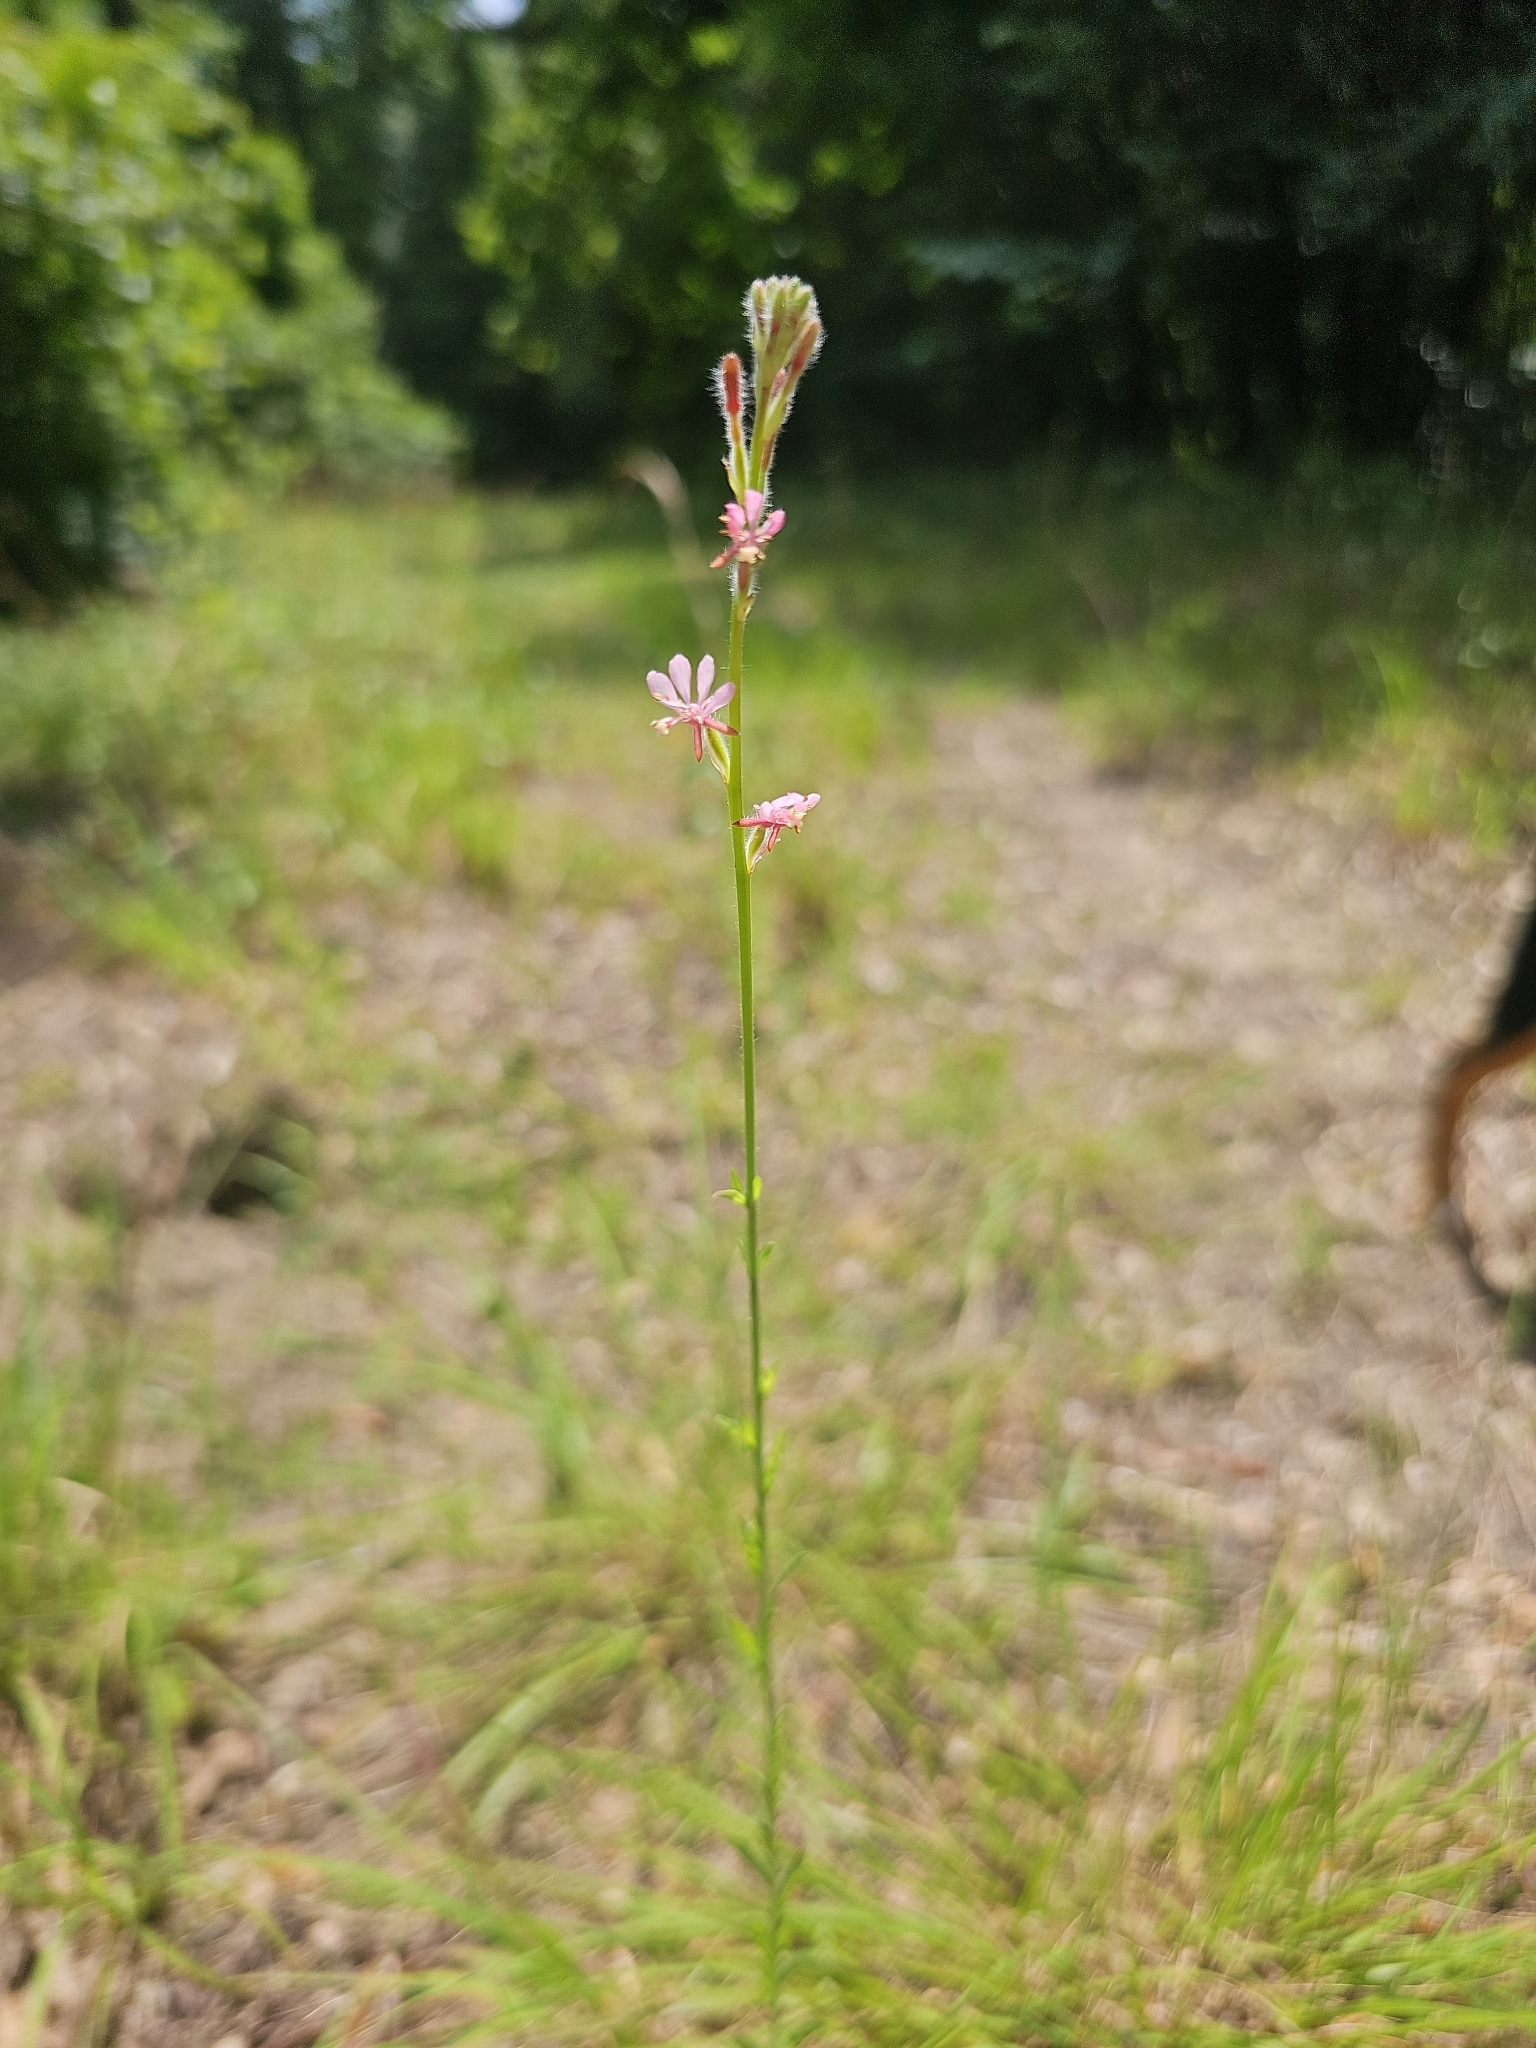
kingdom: Plantae
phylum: Tracheophyta
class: Magnoliopsida
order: Myrtales
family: Onagraceae
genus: Oenothera
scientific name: Oenothera simulans
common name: Southern beeblossom
